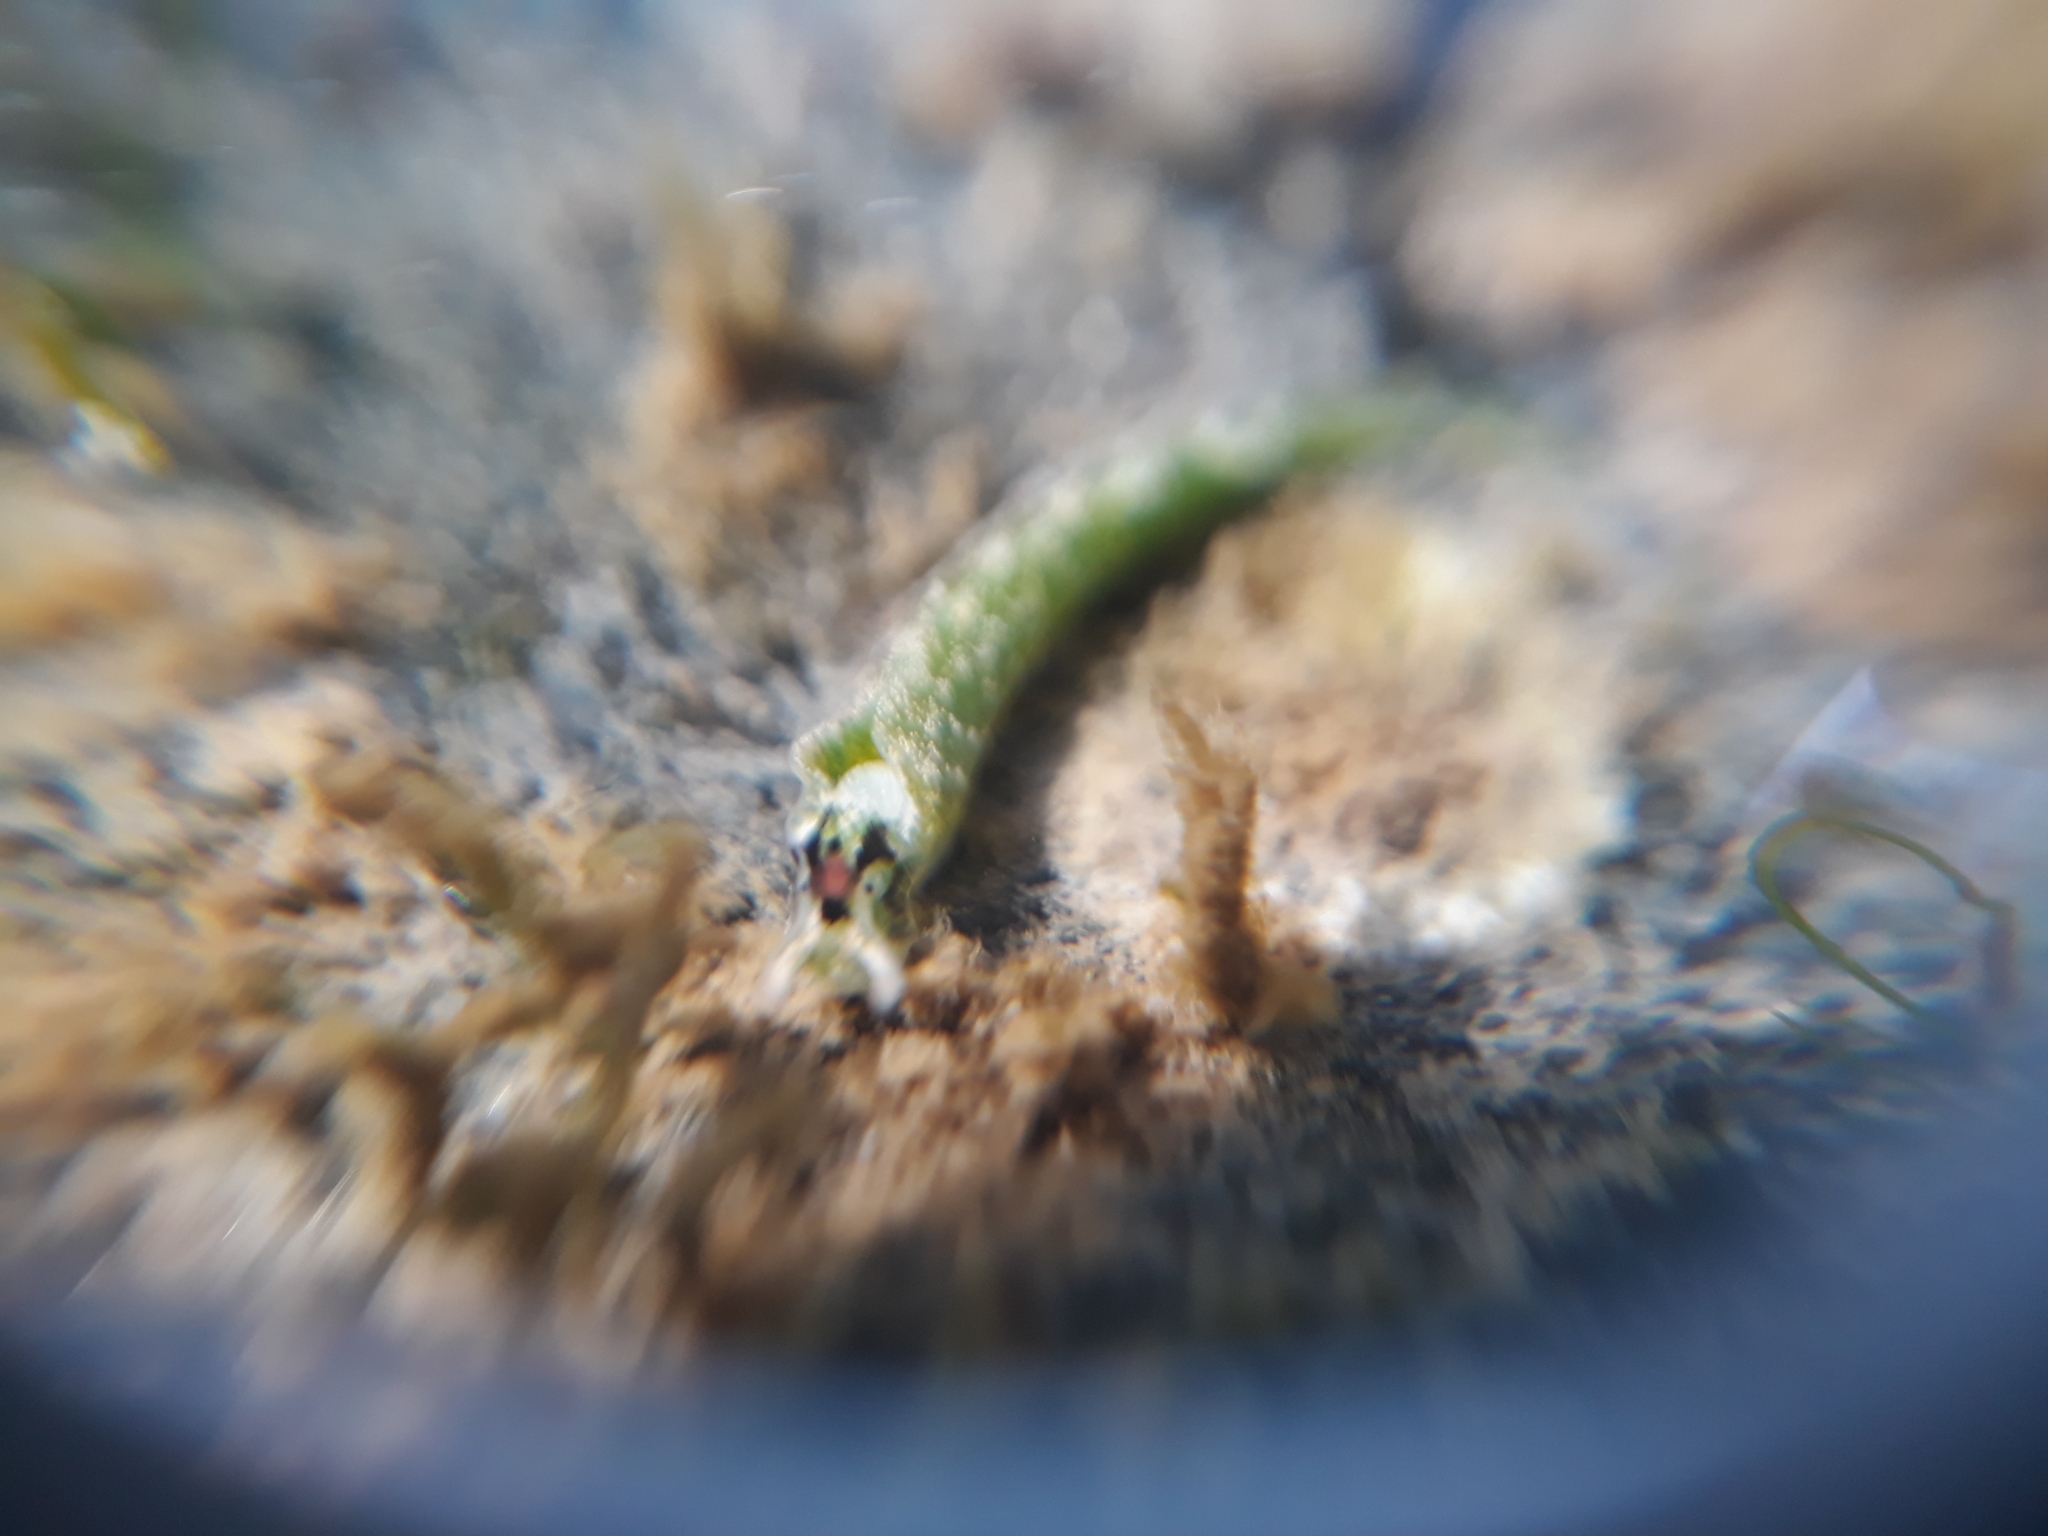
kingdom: Animalia
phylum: Mollusca
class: Gastropoda
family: Plakobranchidae
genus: Elysia
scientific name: Elysia hirasei
